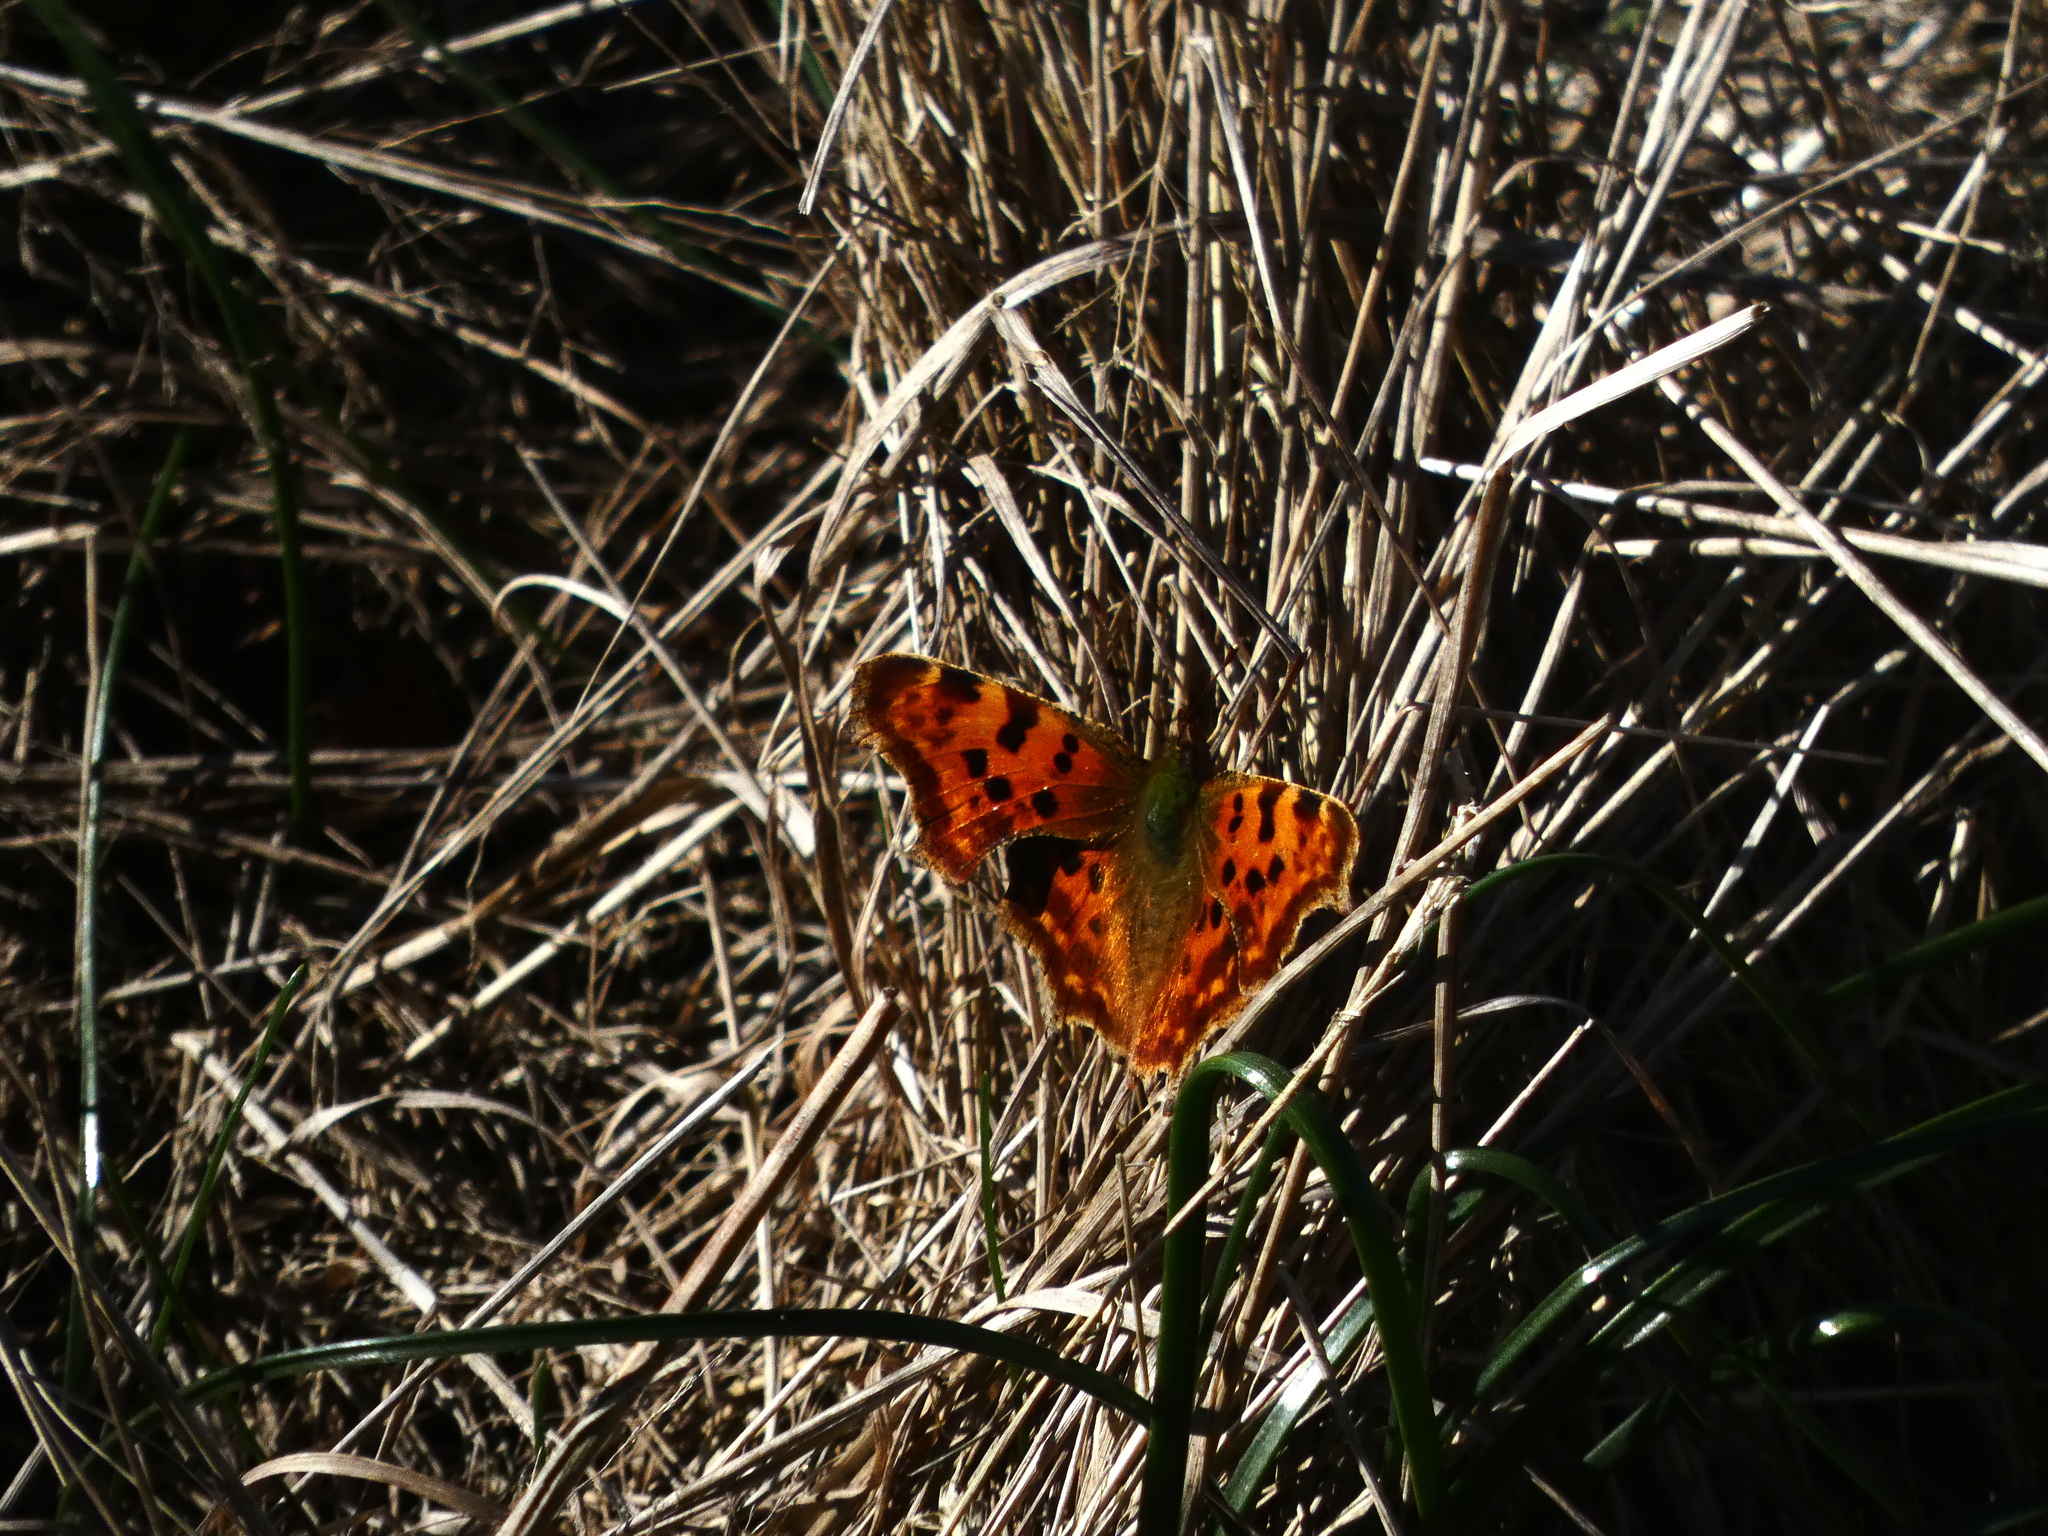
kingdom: Animalia
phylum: Arthropoda
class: Insecta
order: Lepidoptera
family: Nymphalidae
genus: Polygonia
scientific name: Polygonia c-album
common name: Comma
